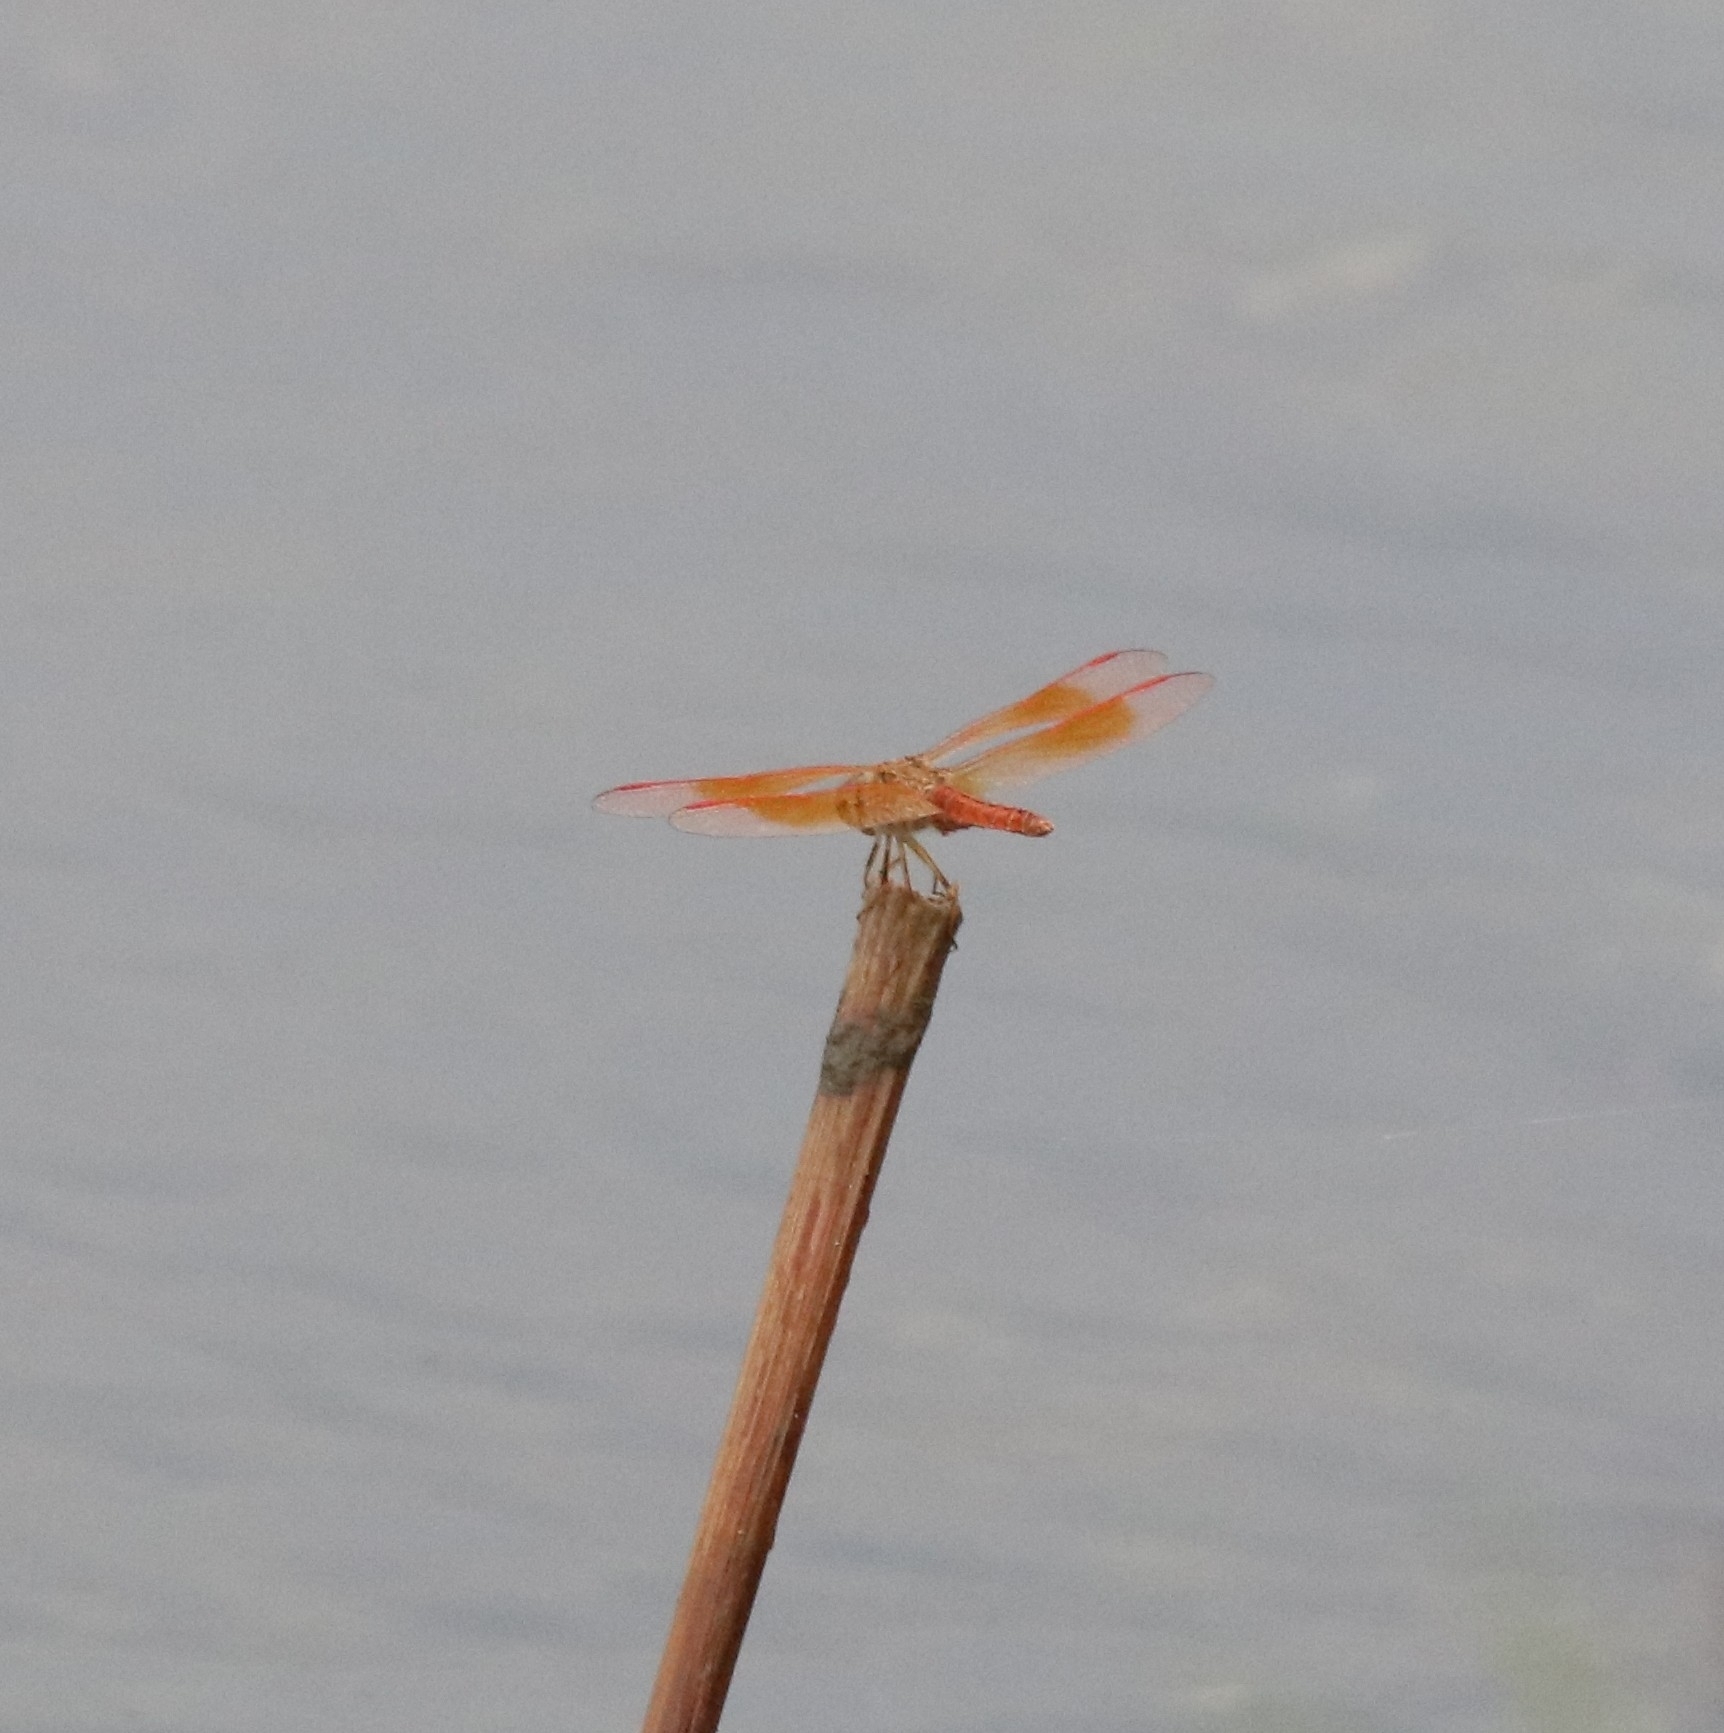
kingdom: Animalia
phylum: Arthropoda
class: Insecta
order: Odonata
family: Libellulidae
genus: Brachythemis
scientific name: Brachythemis contaminata
